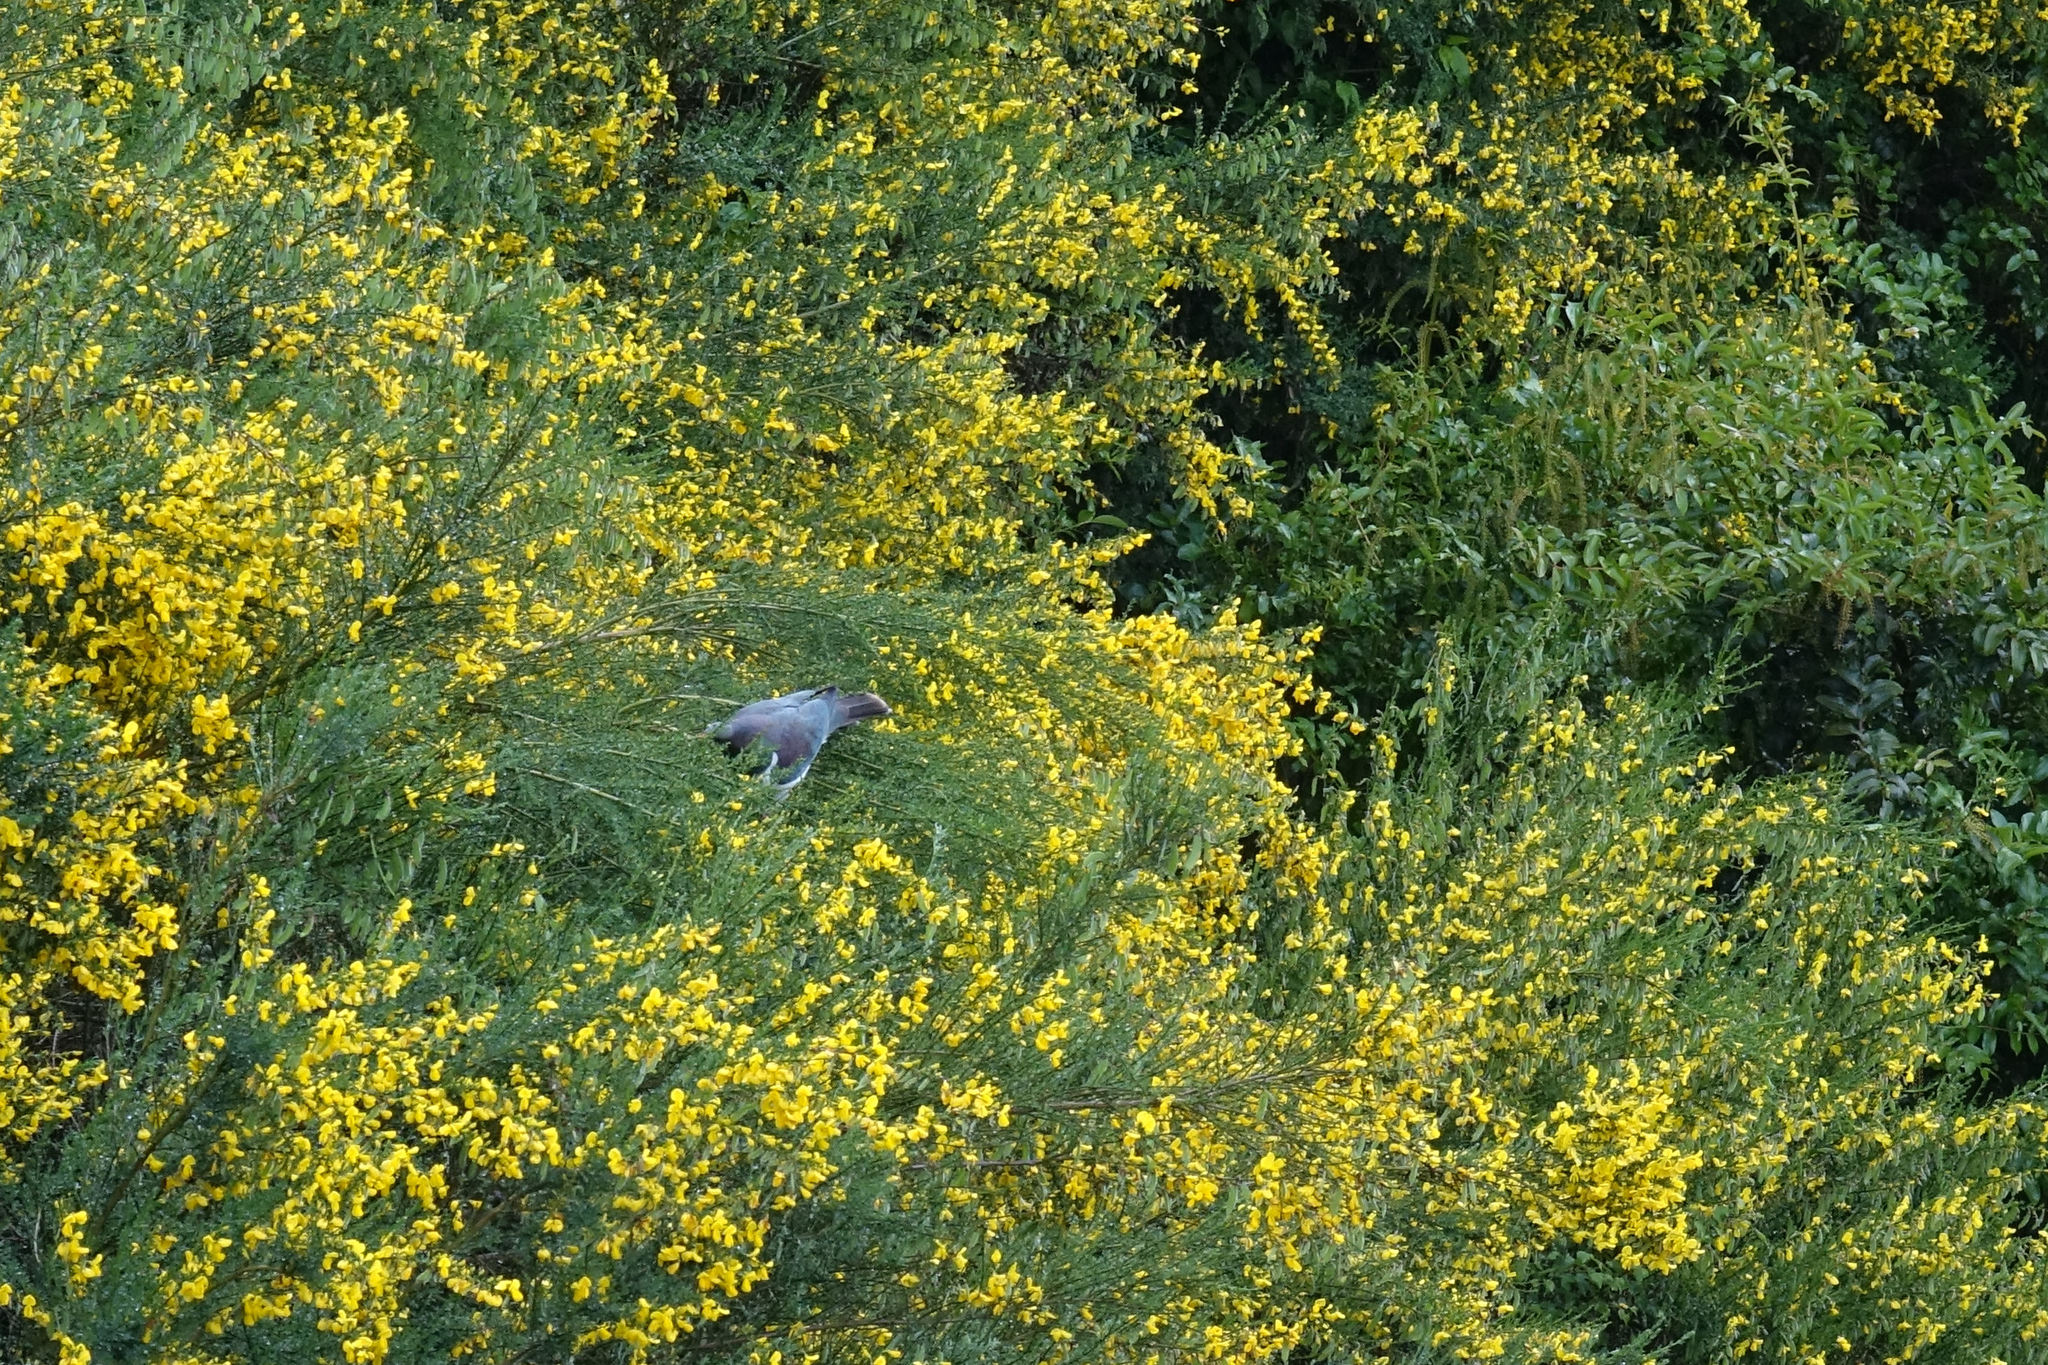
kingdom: Animalia
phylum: Chordata
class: Aves
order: Columbiformes
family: Columbidae
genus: Hemiphaga
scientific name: Hemiphaga novaeseelandiae
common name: New zealand pigeon
